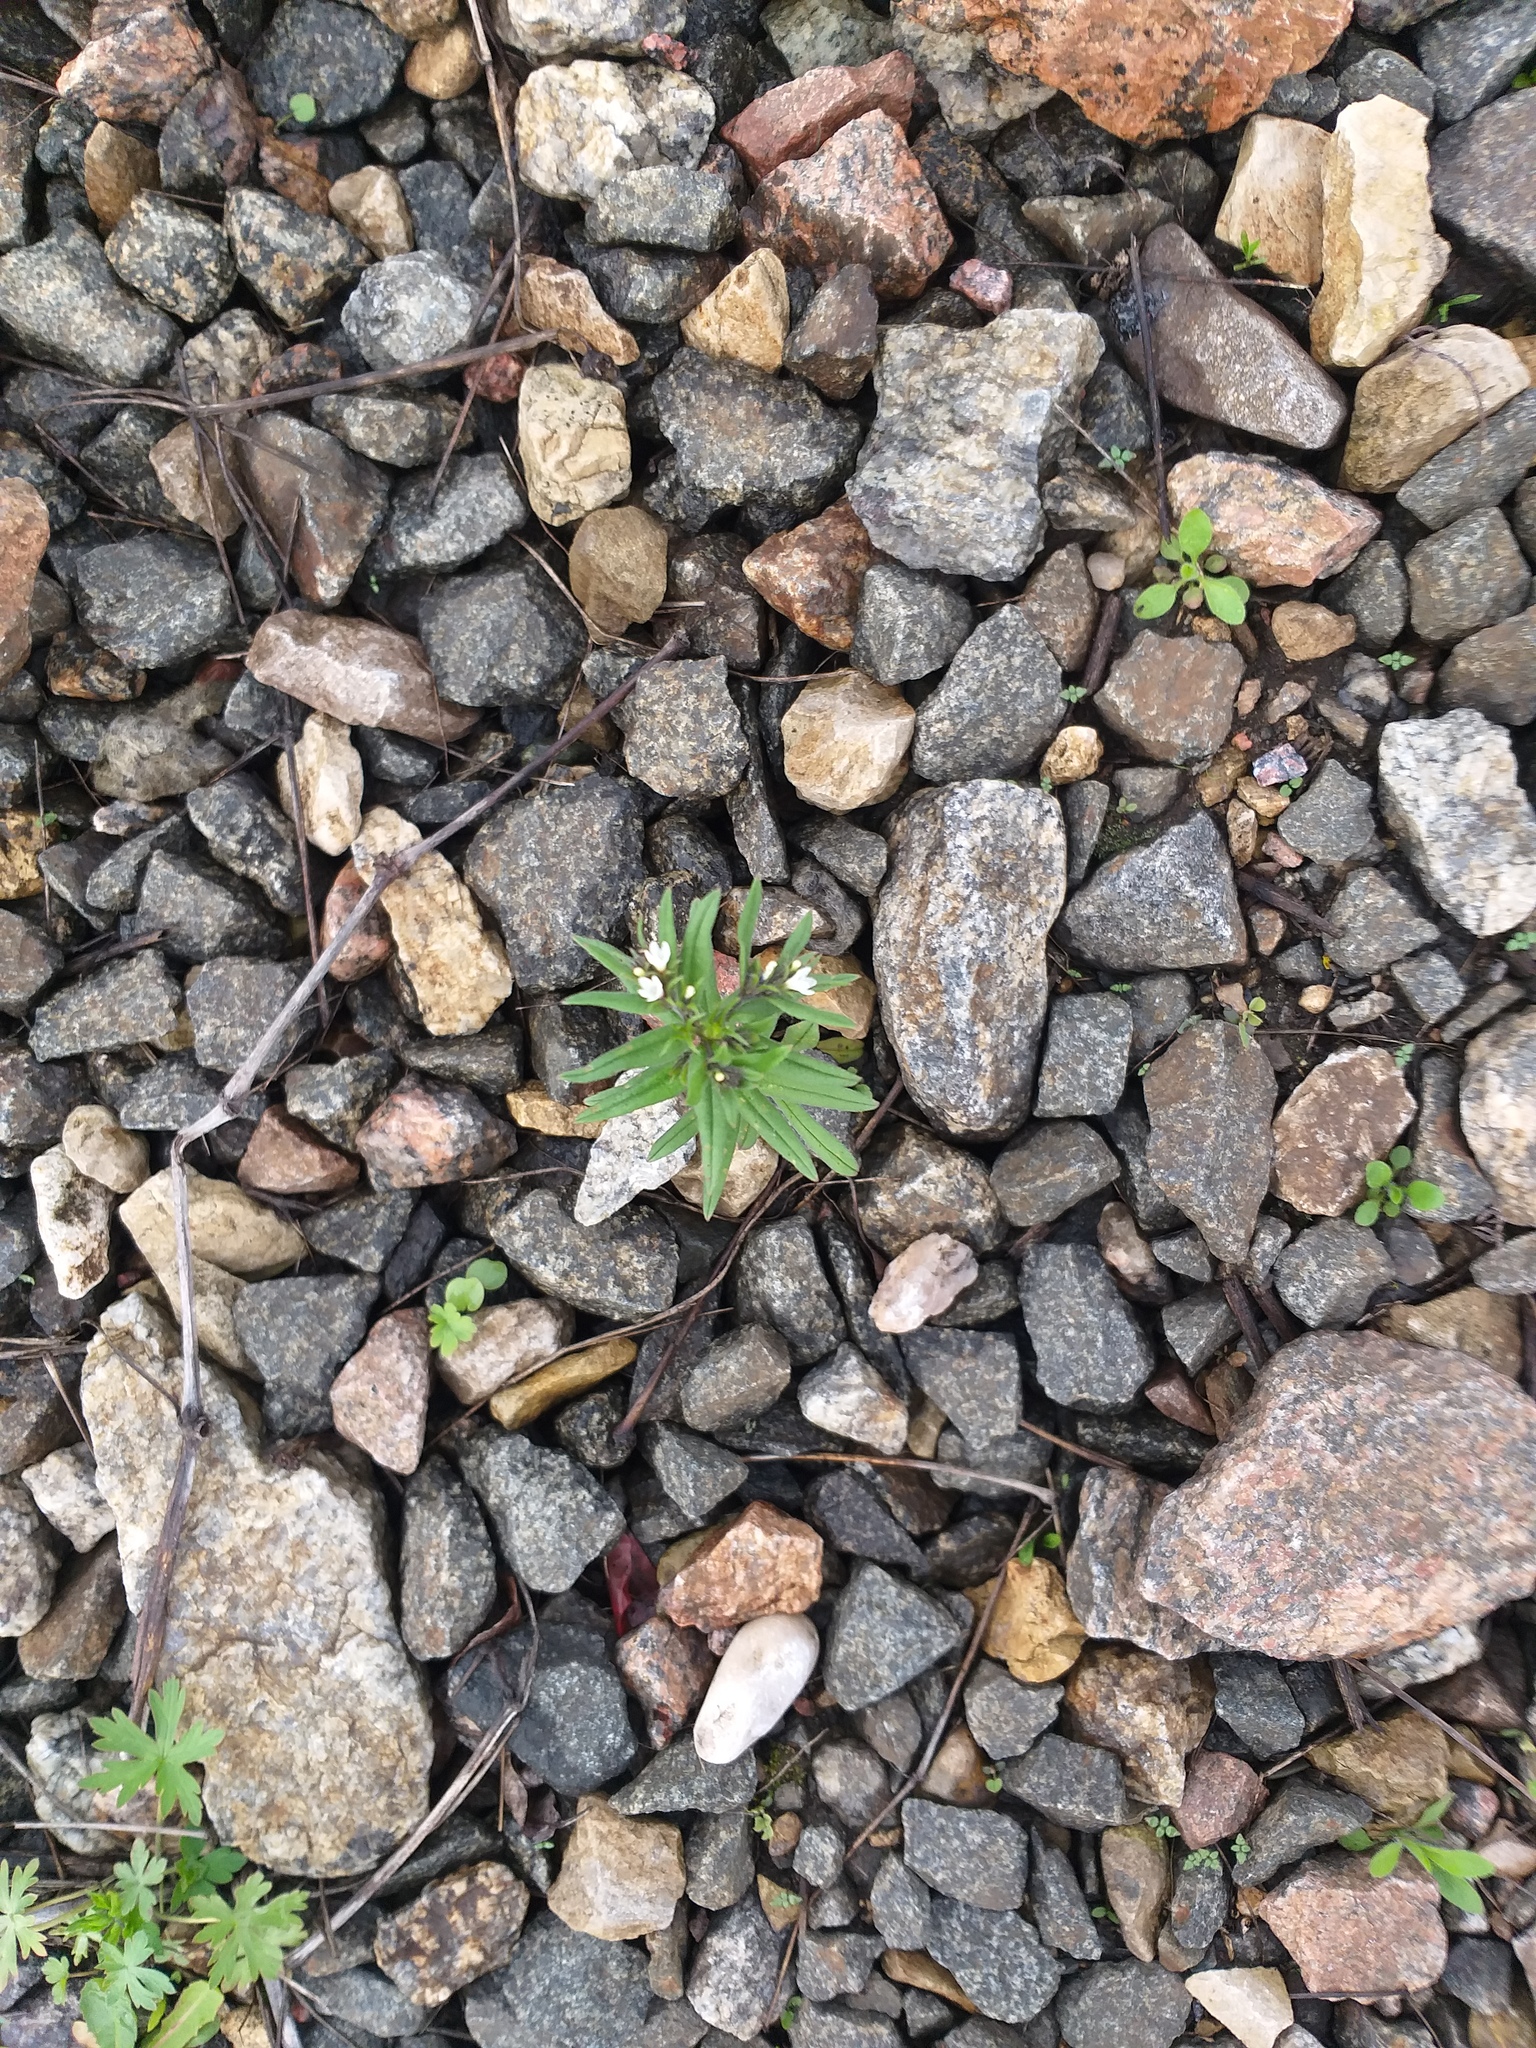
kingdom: Plantae
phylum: Tracheophyta
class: Magnoliopsida
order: Boraginales
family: Boraginaceae
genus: Buglossoides
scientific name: Buglossoides arvensis
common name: Corn gromwell
